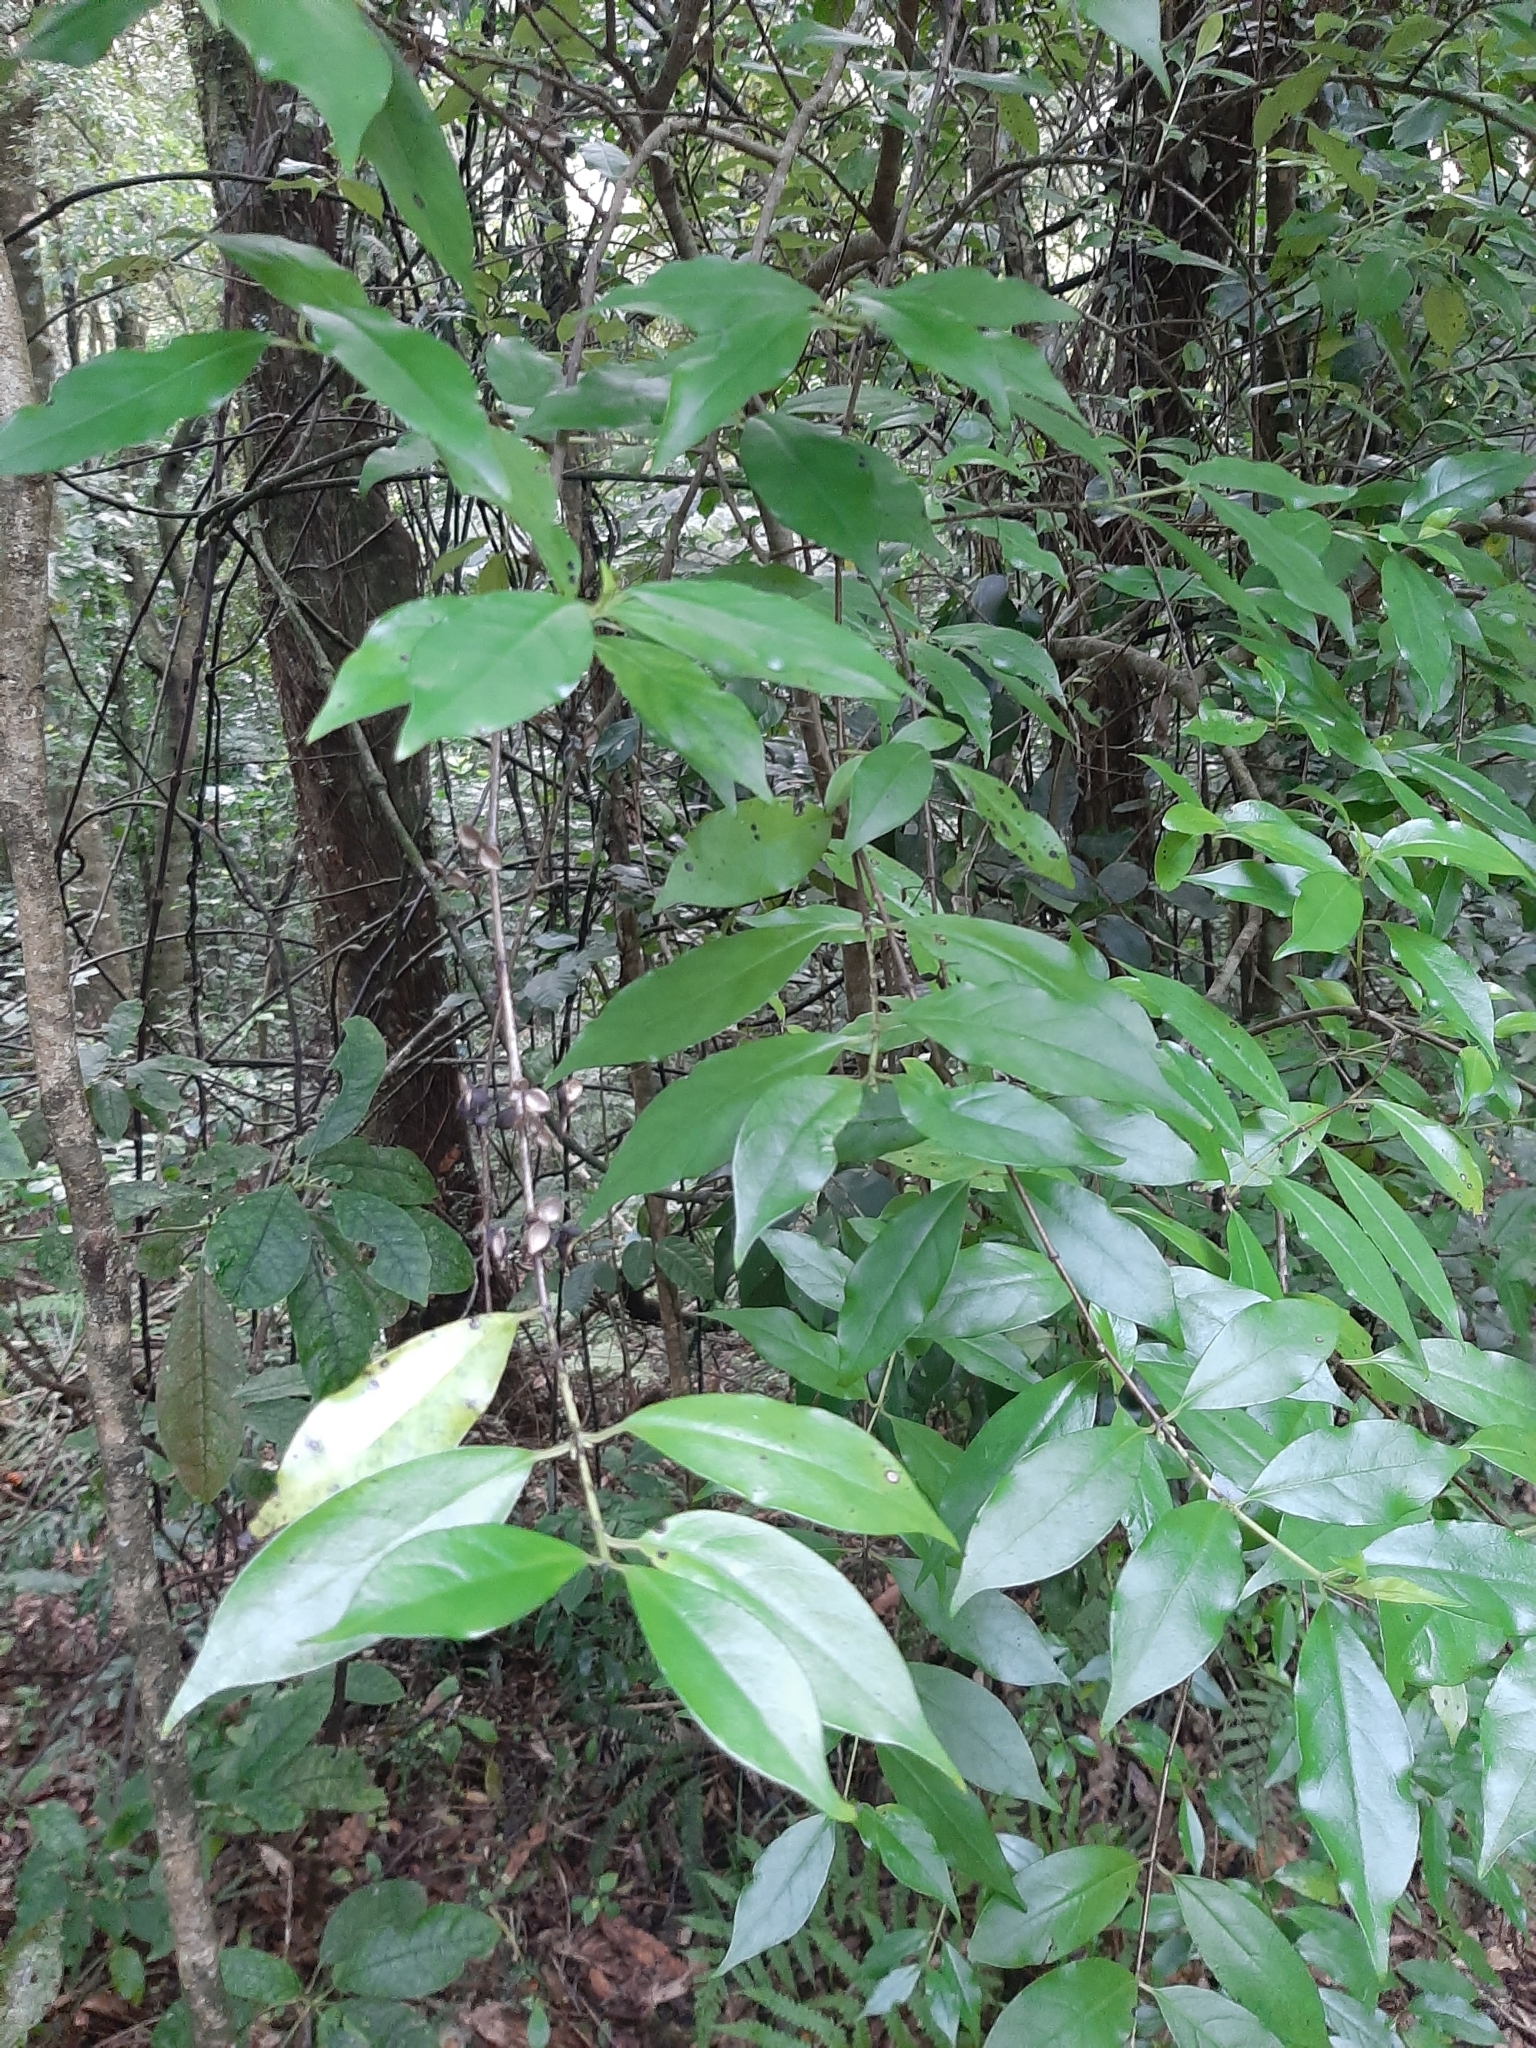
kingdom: Plantae
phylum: Tracheophyta
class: Magnoliopsida
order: Gentianales
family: Loganiaceae
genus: Geniostoma
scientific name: Geniostoma ligustrifolium
